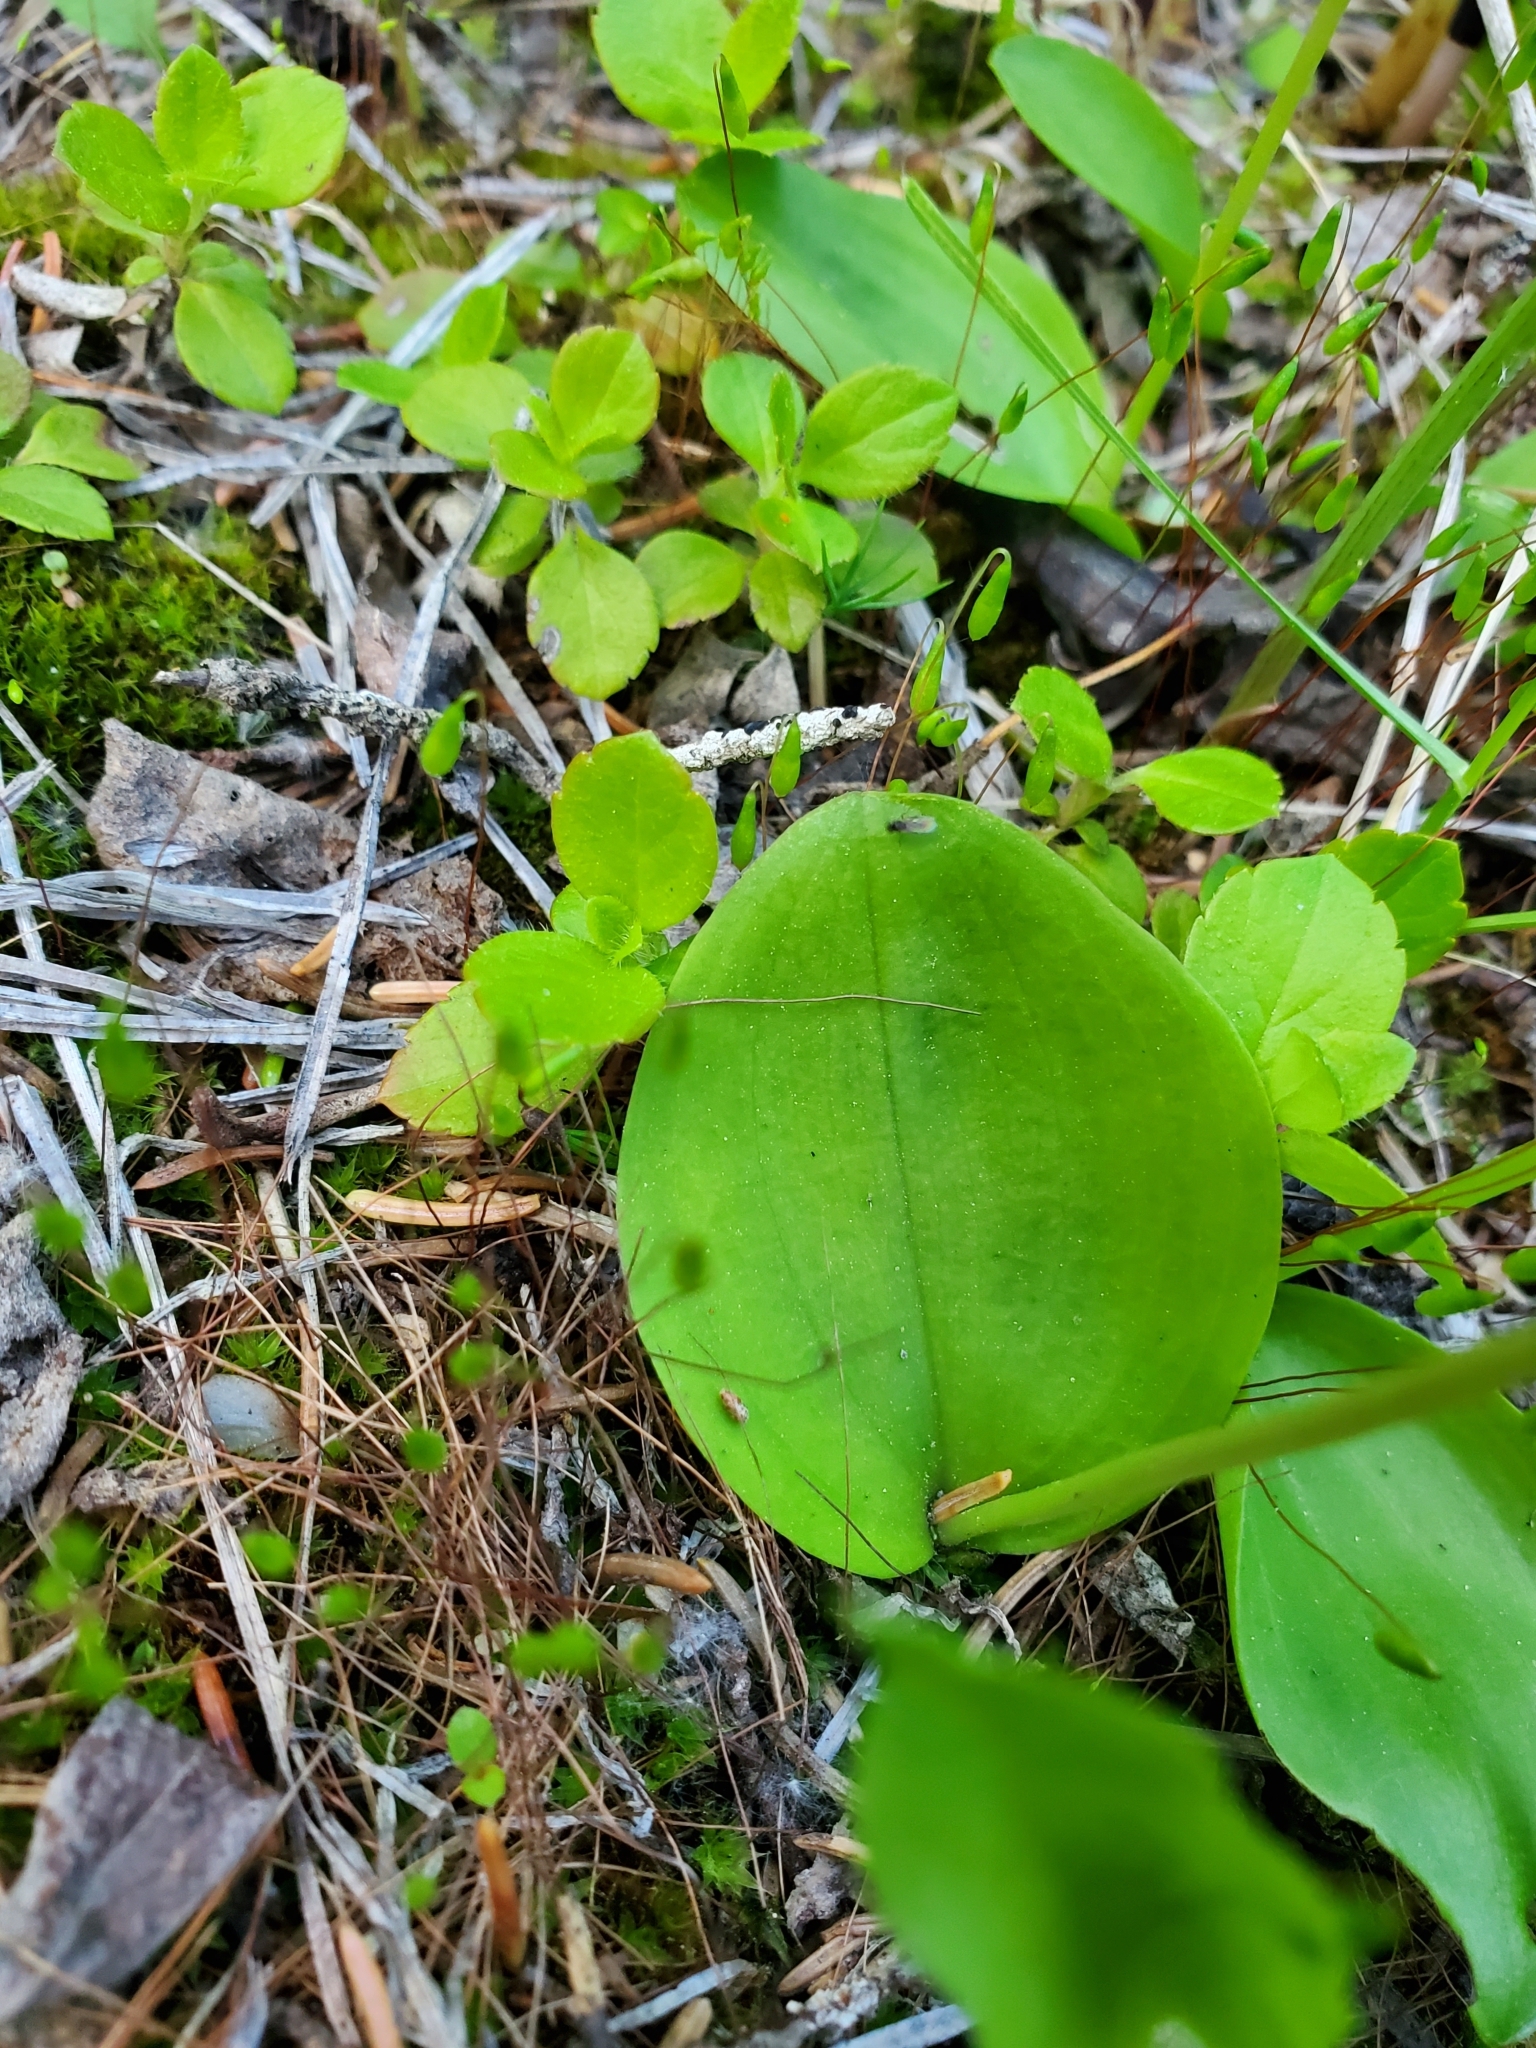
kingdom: Plantae
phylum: Tracheophyta
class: Liliopsida
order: Asparagales
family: Orchidaceae
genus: Galearis
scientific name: Galearis rotundifolia
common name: One-leaved orchis
